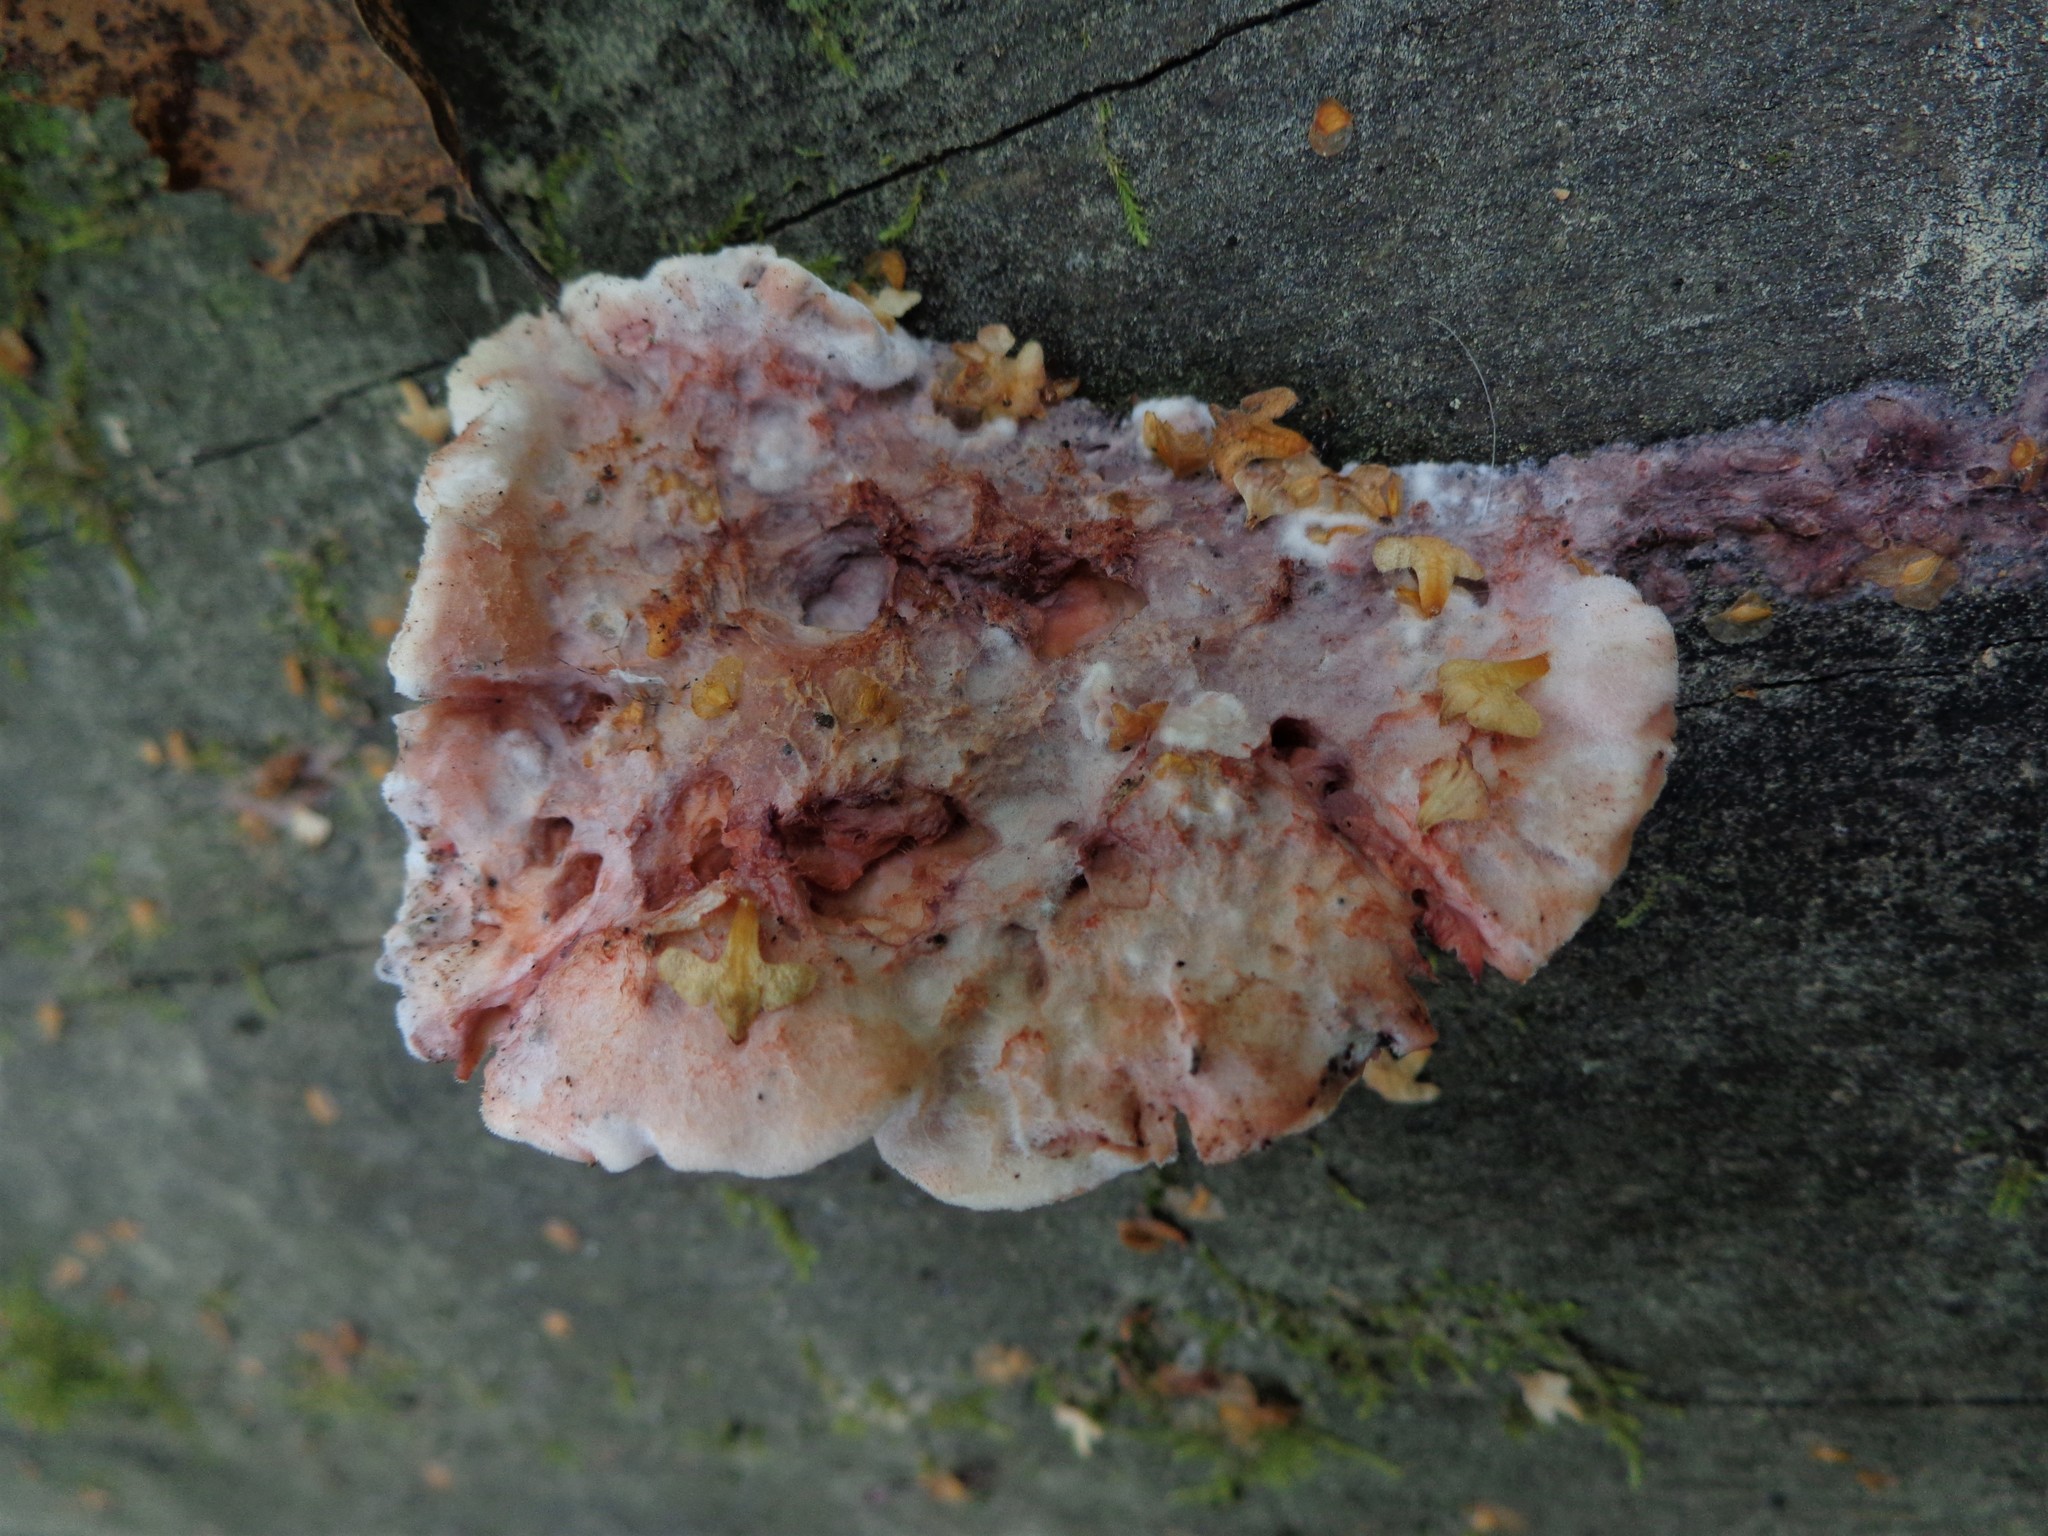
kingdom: Fungi
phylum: Basidiomycota
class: Agaricomycetes
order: Polyporales
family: Irpicaceae
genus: Leptoporus
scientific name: Leptoporus mollis
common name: Soft bracket
